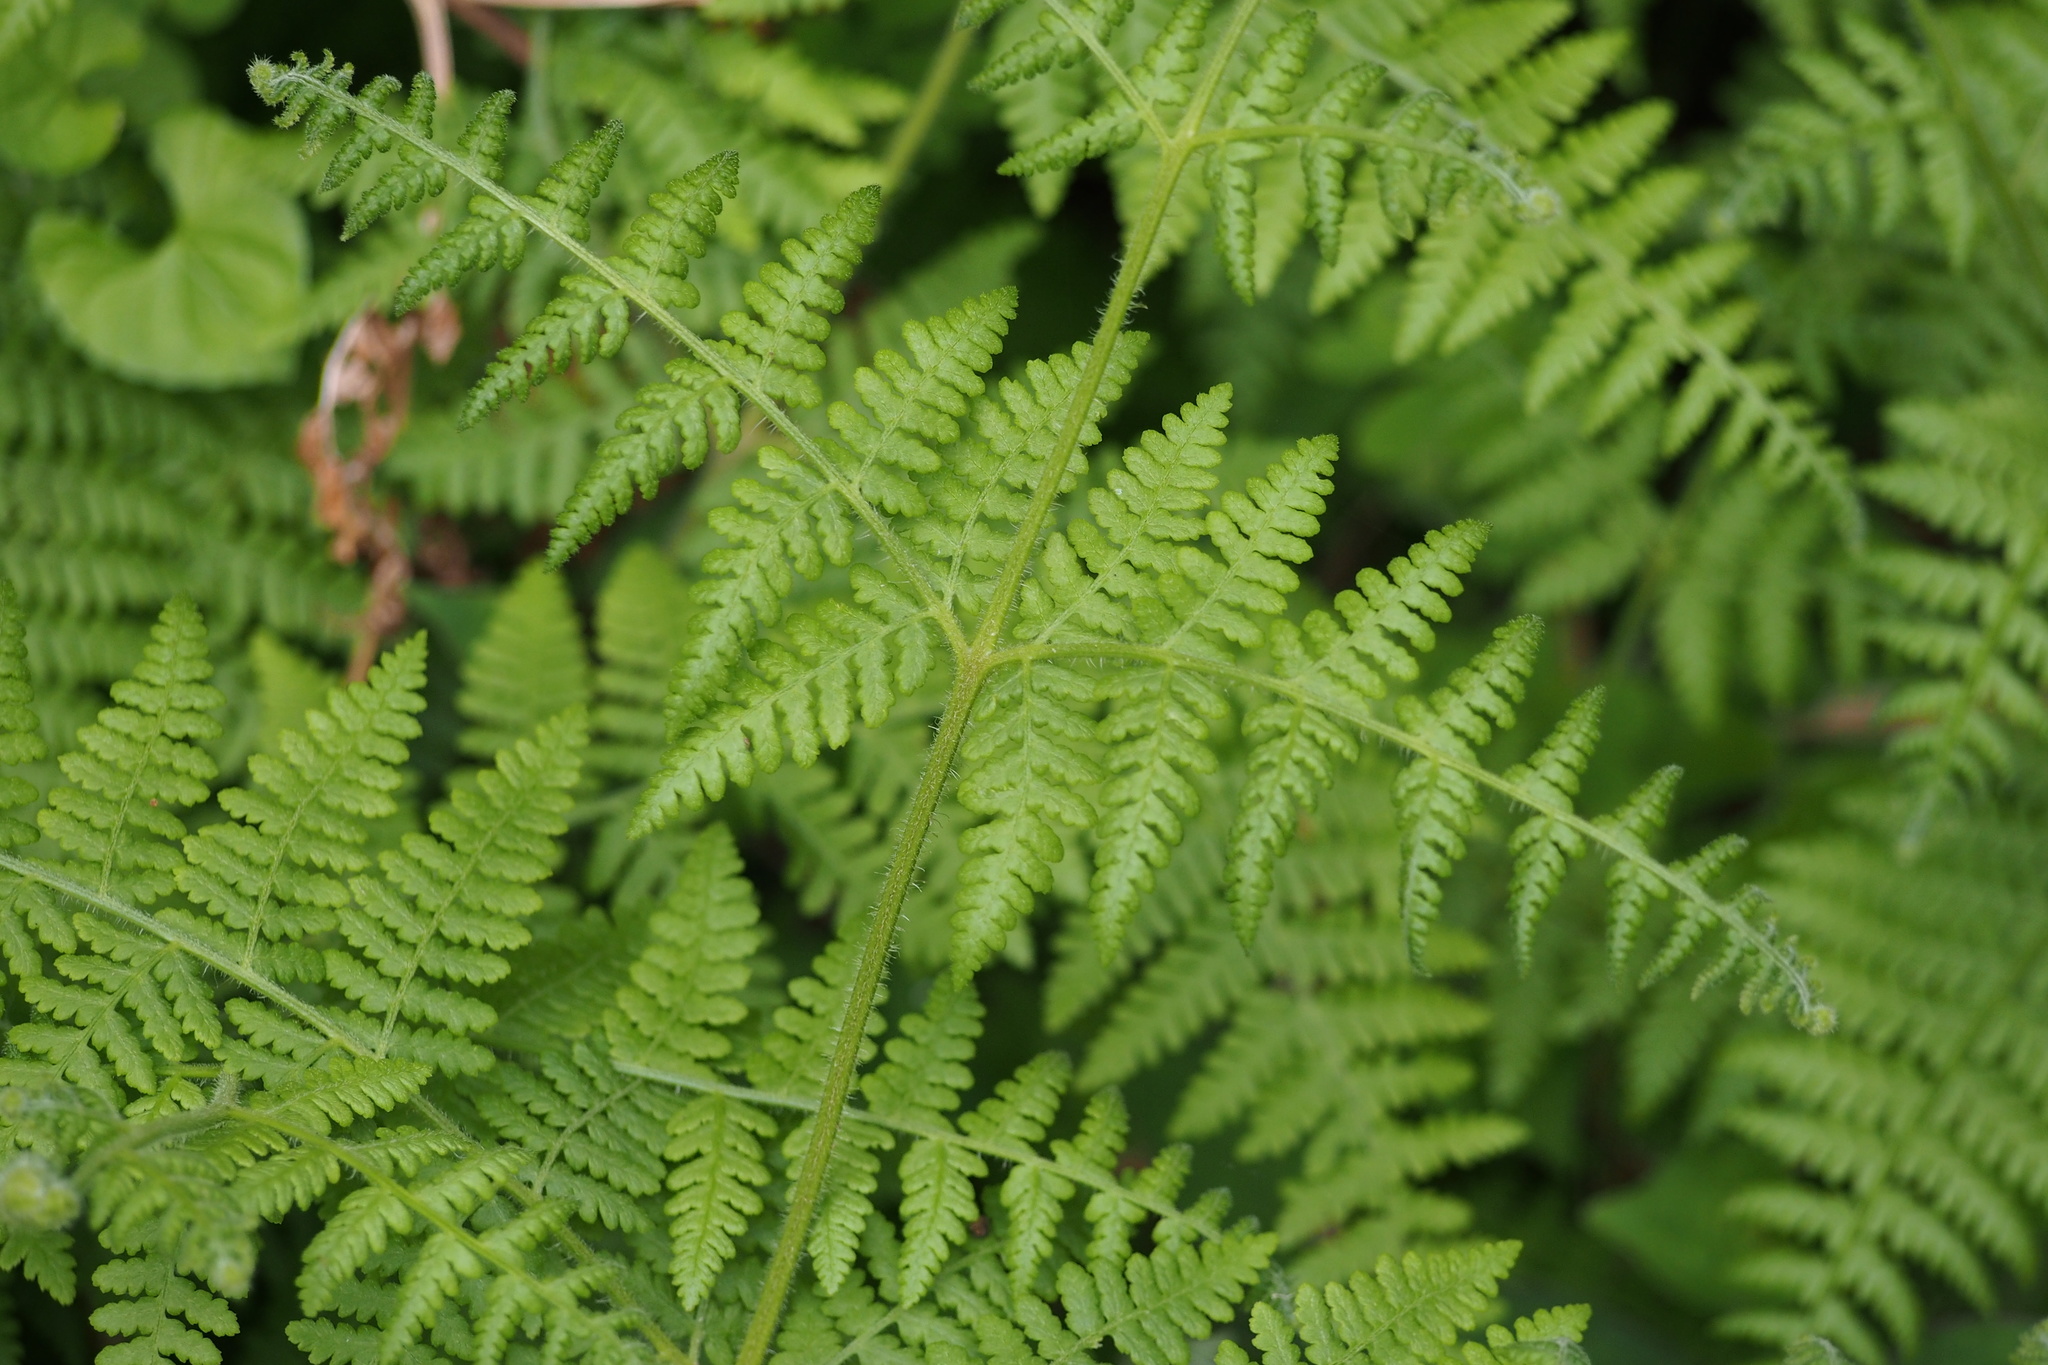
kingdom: Plantae
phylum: Tracheophyta
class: Polypodiopsida
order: Polypodiales
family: Dennstaedtiaceae
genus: Hypolepis
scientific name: Hypolepis punctata
